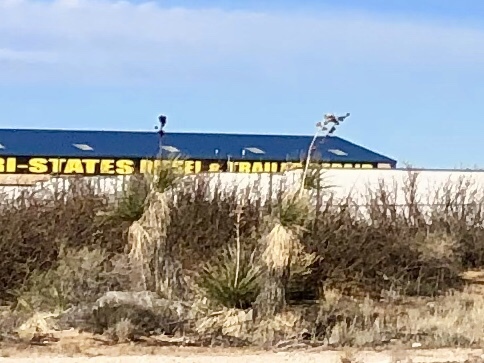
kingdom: Plantae
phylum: Tracheophyta
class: Liliopsida
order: Asparagales
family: Asparagaceae
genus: Yucca
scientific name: Yucca elata
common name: Palmella
